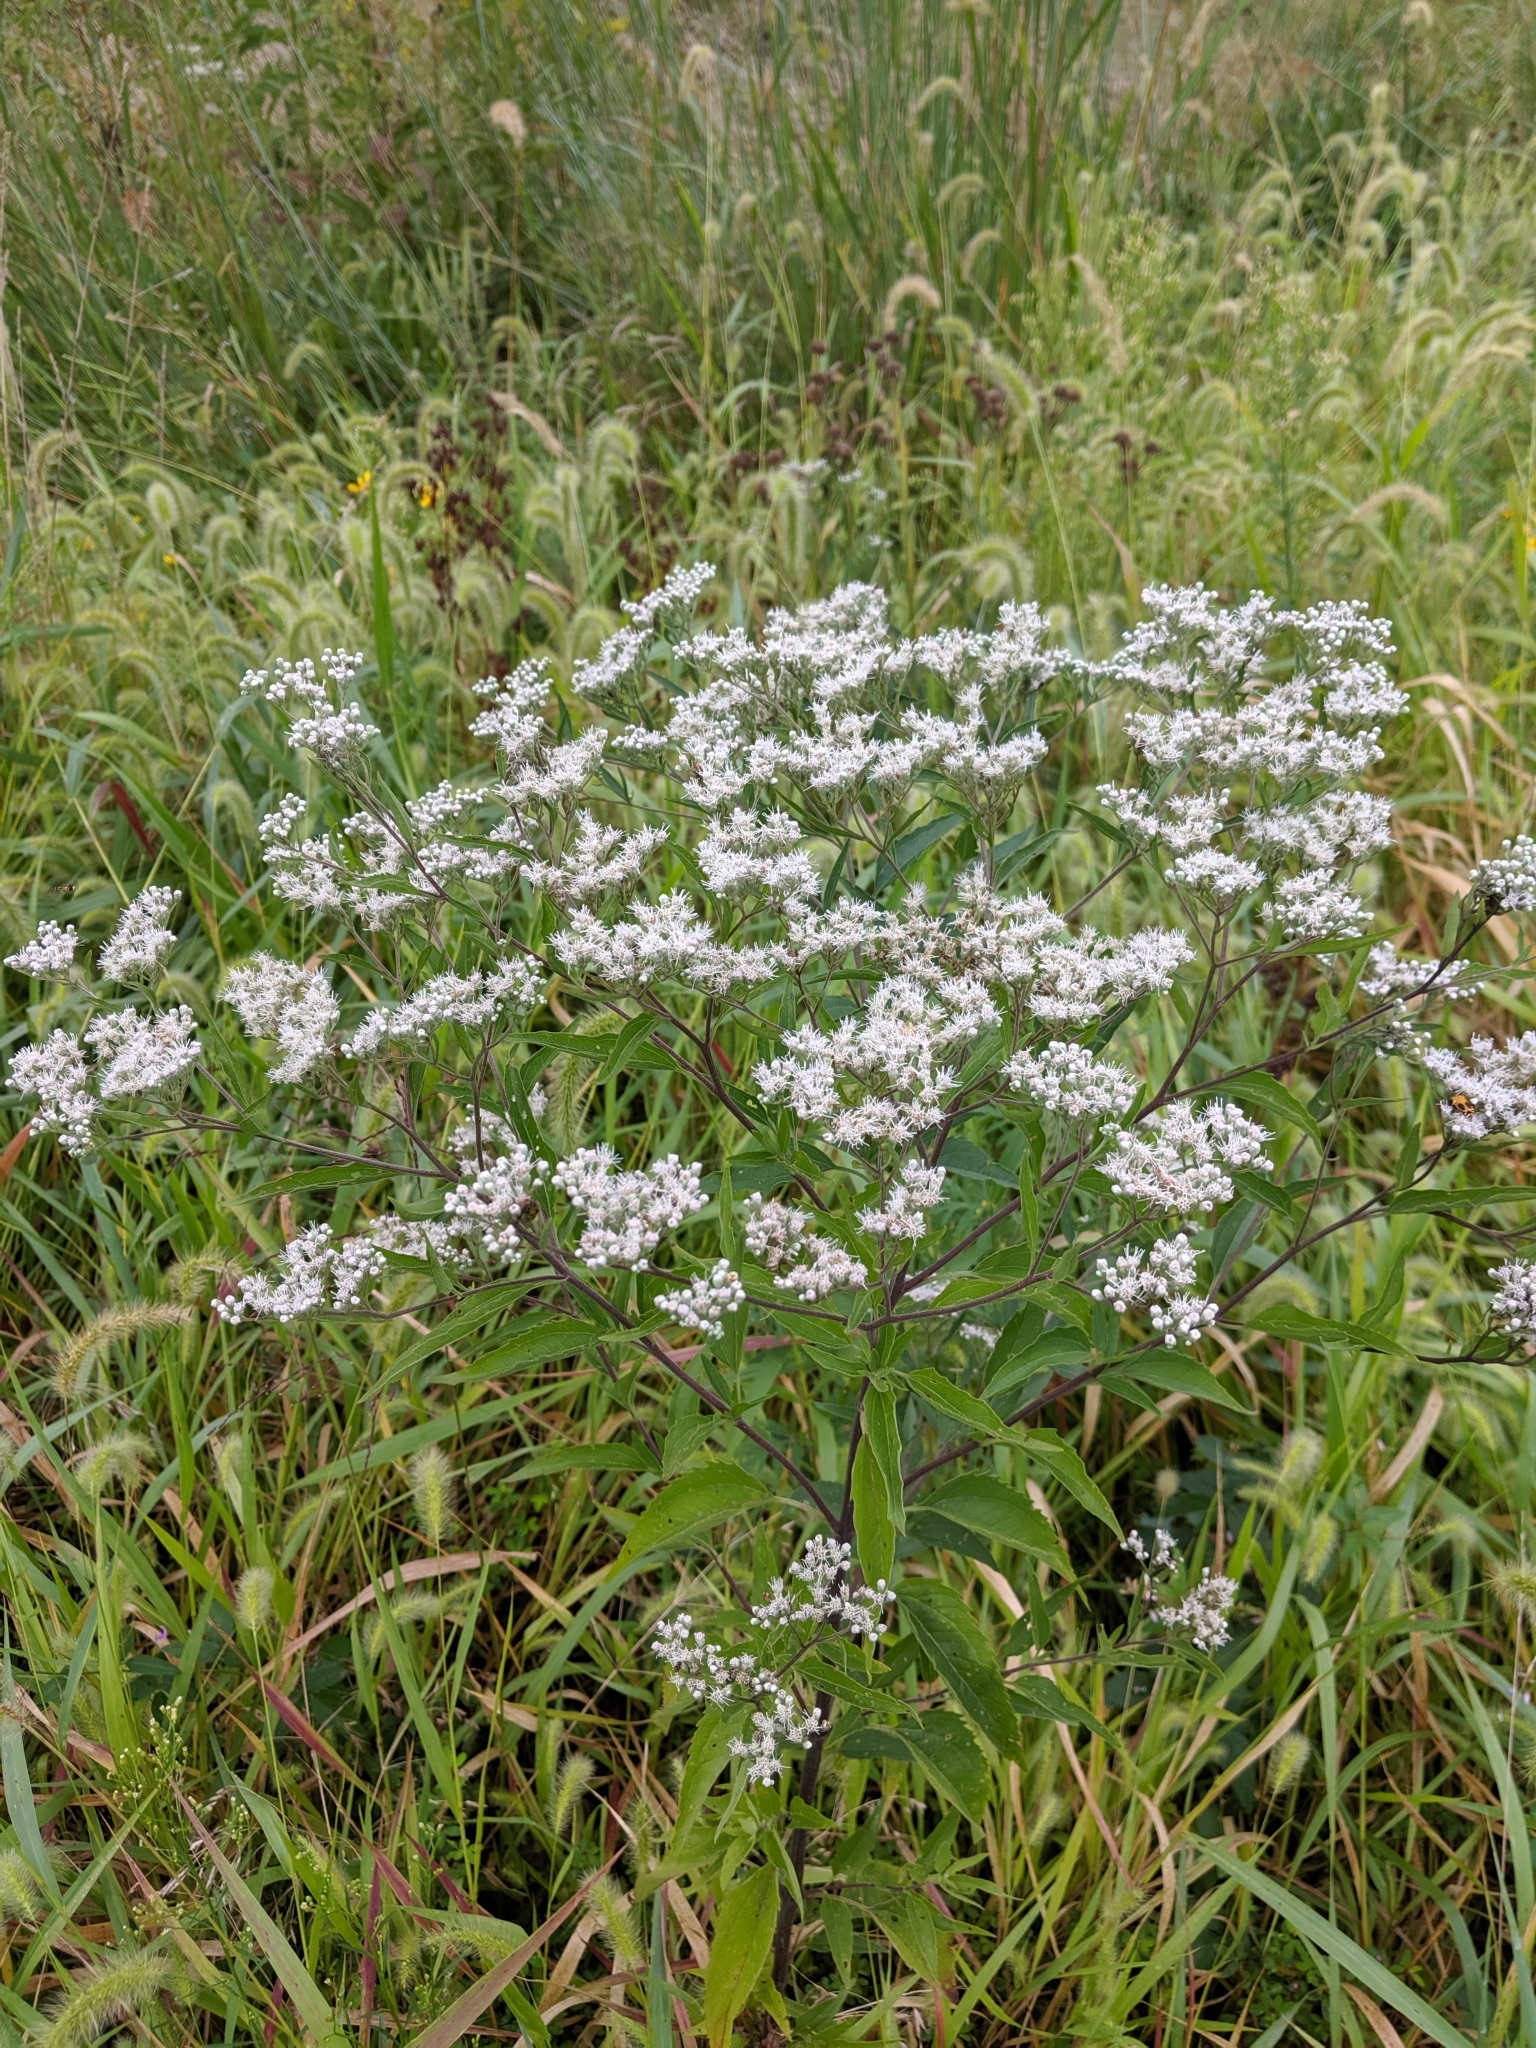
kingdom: Plantae
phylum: Tracheophyta
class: Magnoliopsida
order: Asterales
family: Asteraceae
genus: Eupatorium
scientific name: Eupatorium serotinum
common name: Late boneset
